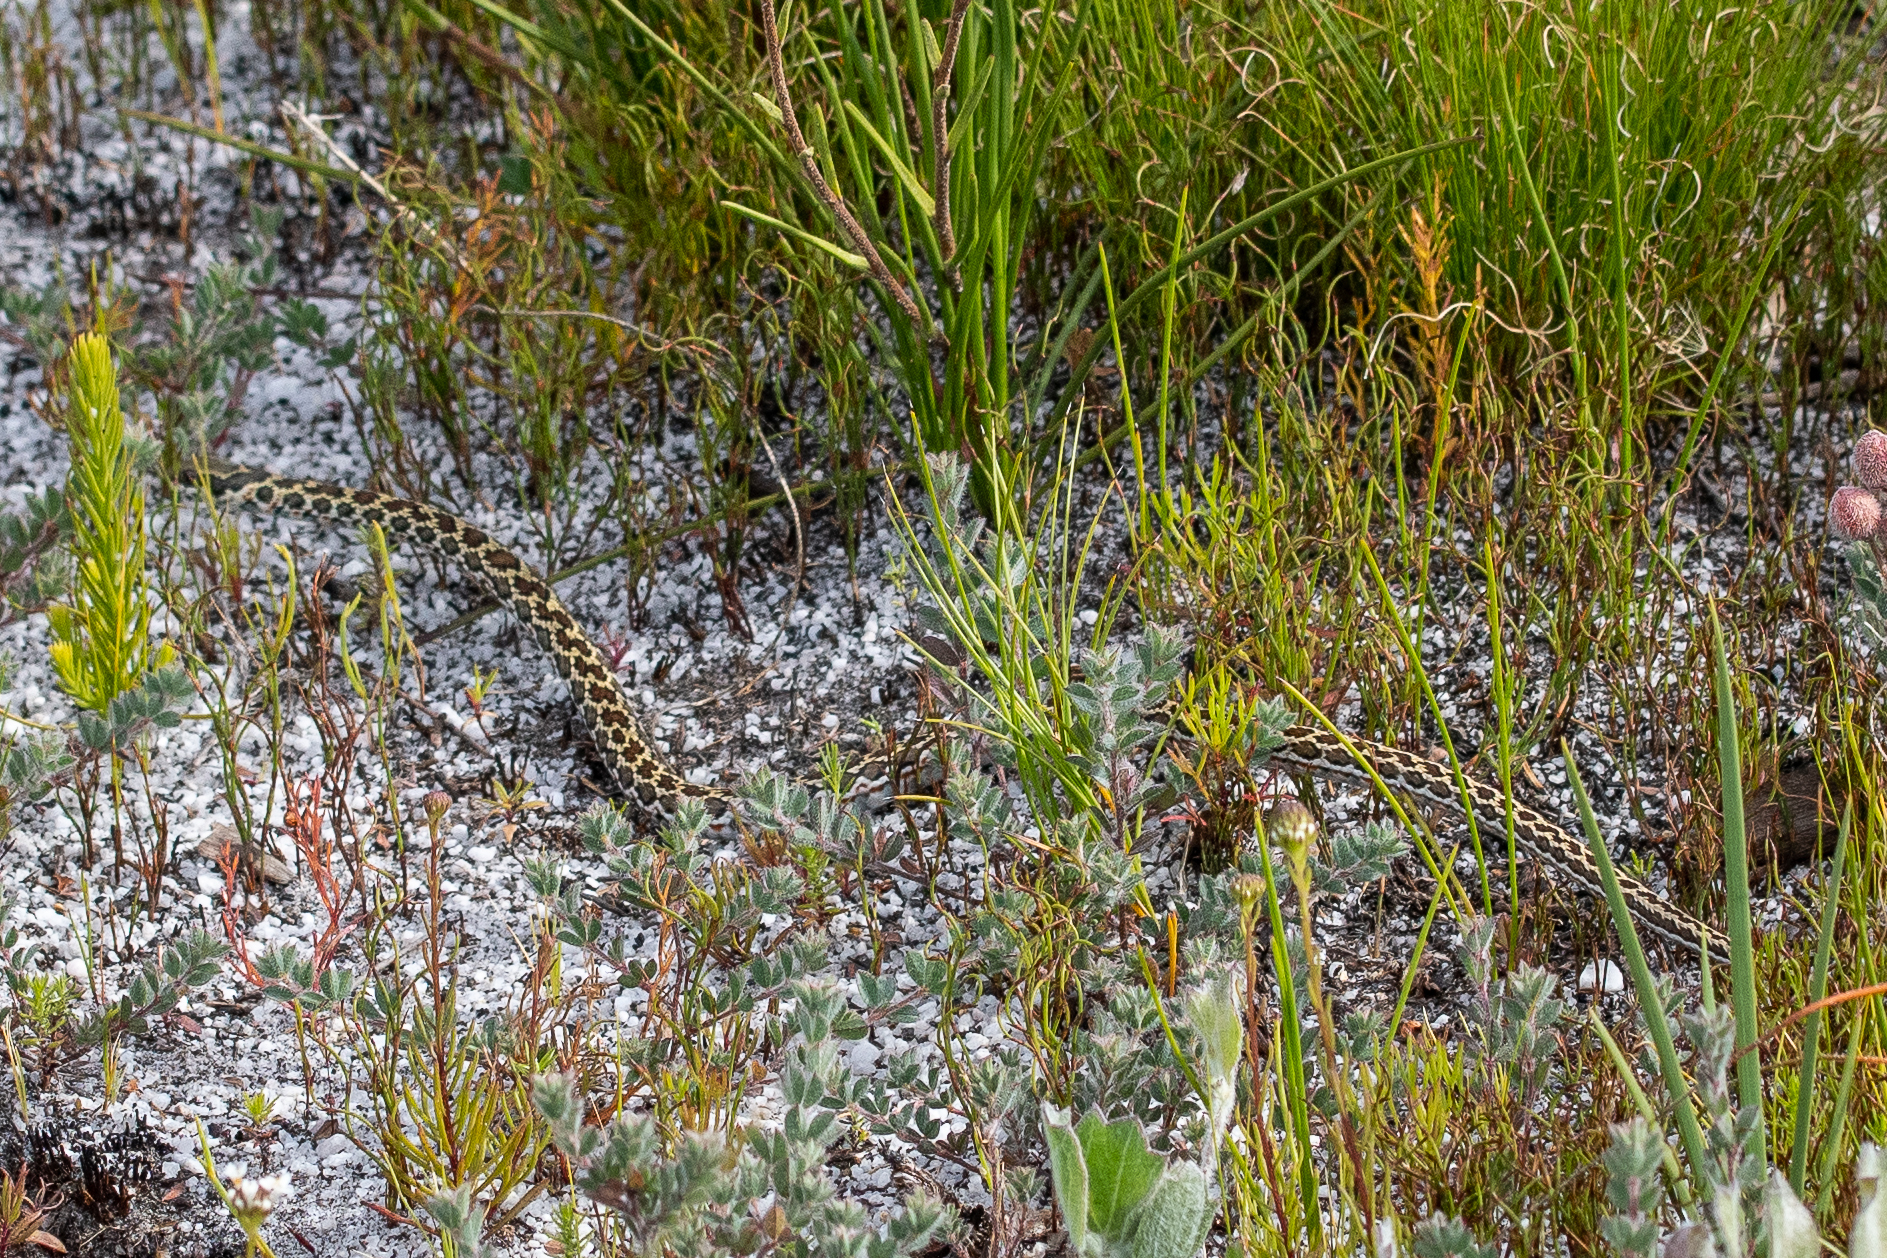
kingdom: Animalia
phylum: Chordata
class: Squamata
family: Psammophiidae
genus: Psammophylax
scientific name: Psammophylax rhombeatus
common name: Rhombic skaapsteker
